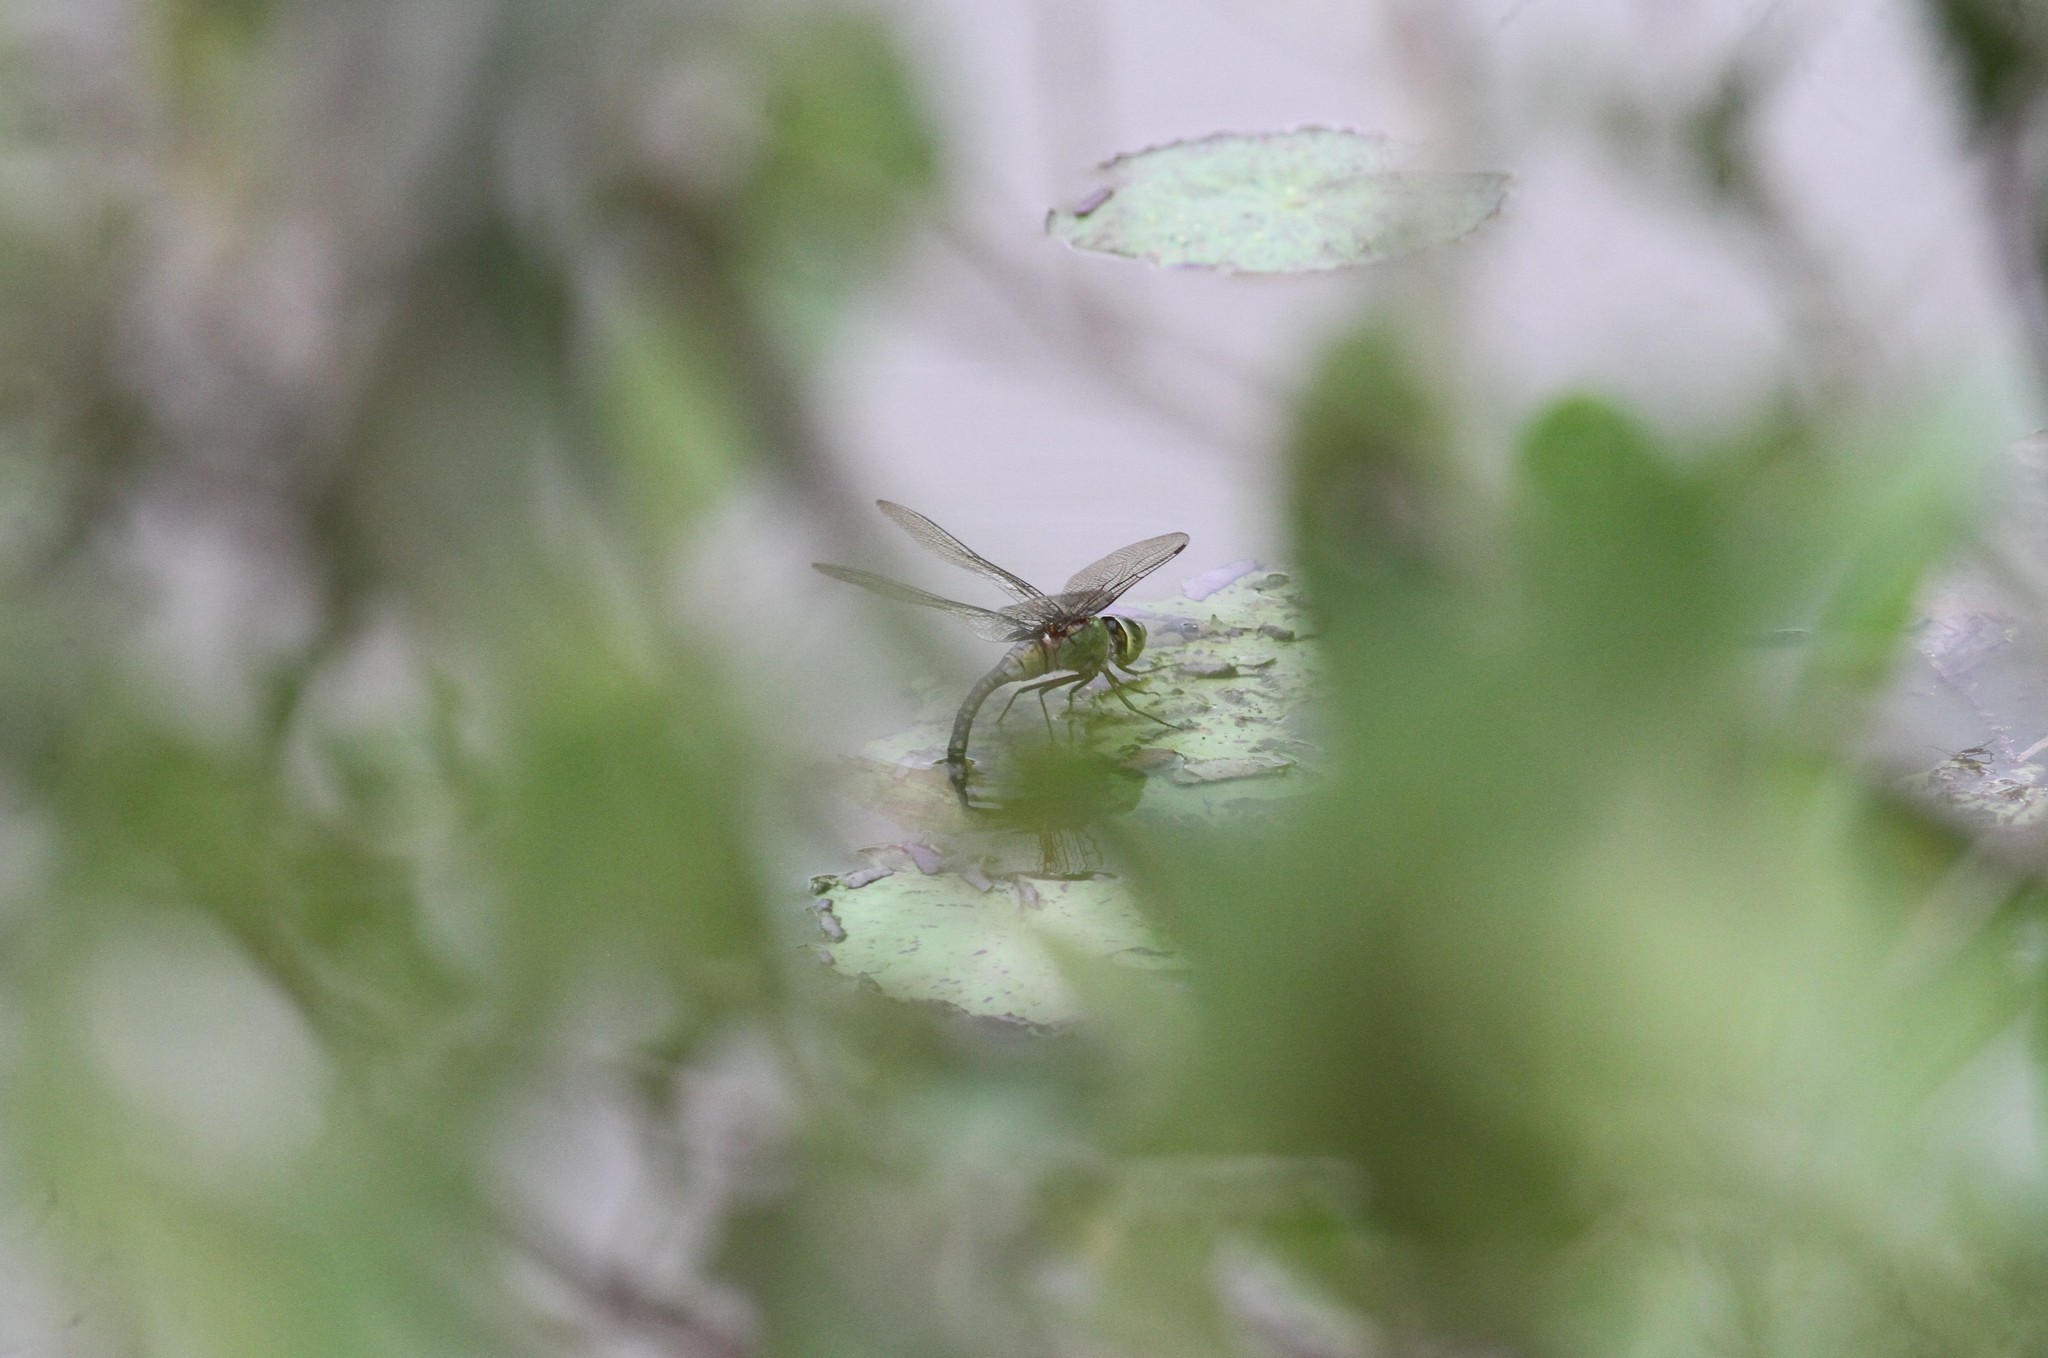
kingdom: Animalia
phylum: Arthropoda
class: Insecta
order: Odonata
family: Aeshnidae
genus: Anax
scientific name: Anax guttatus
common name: Emperor
